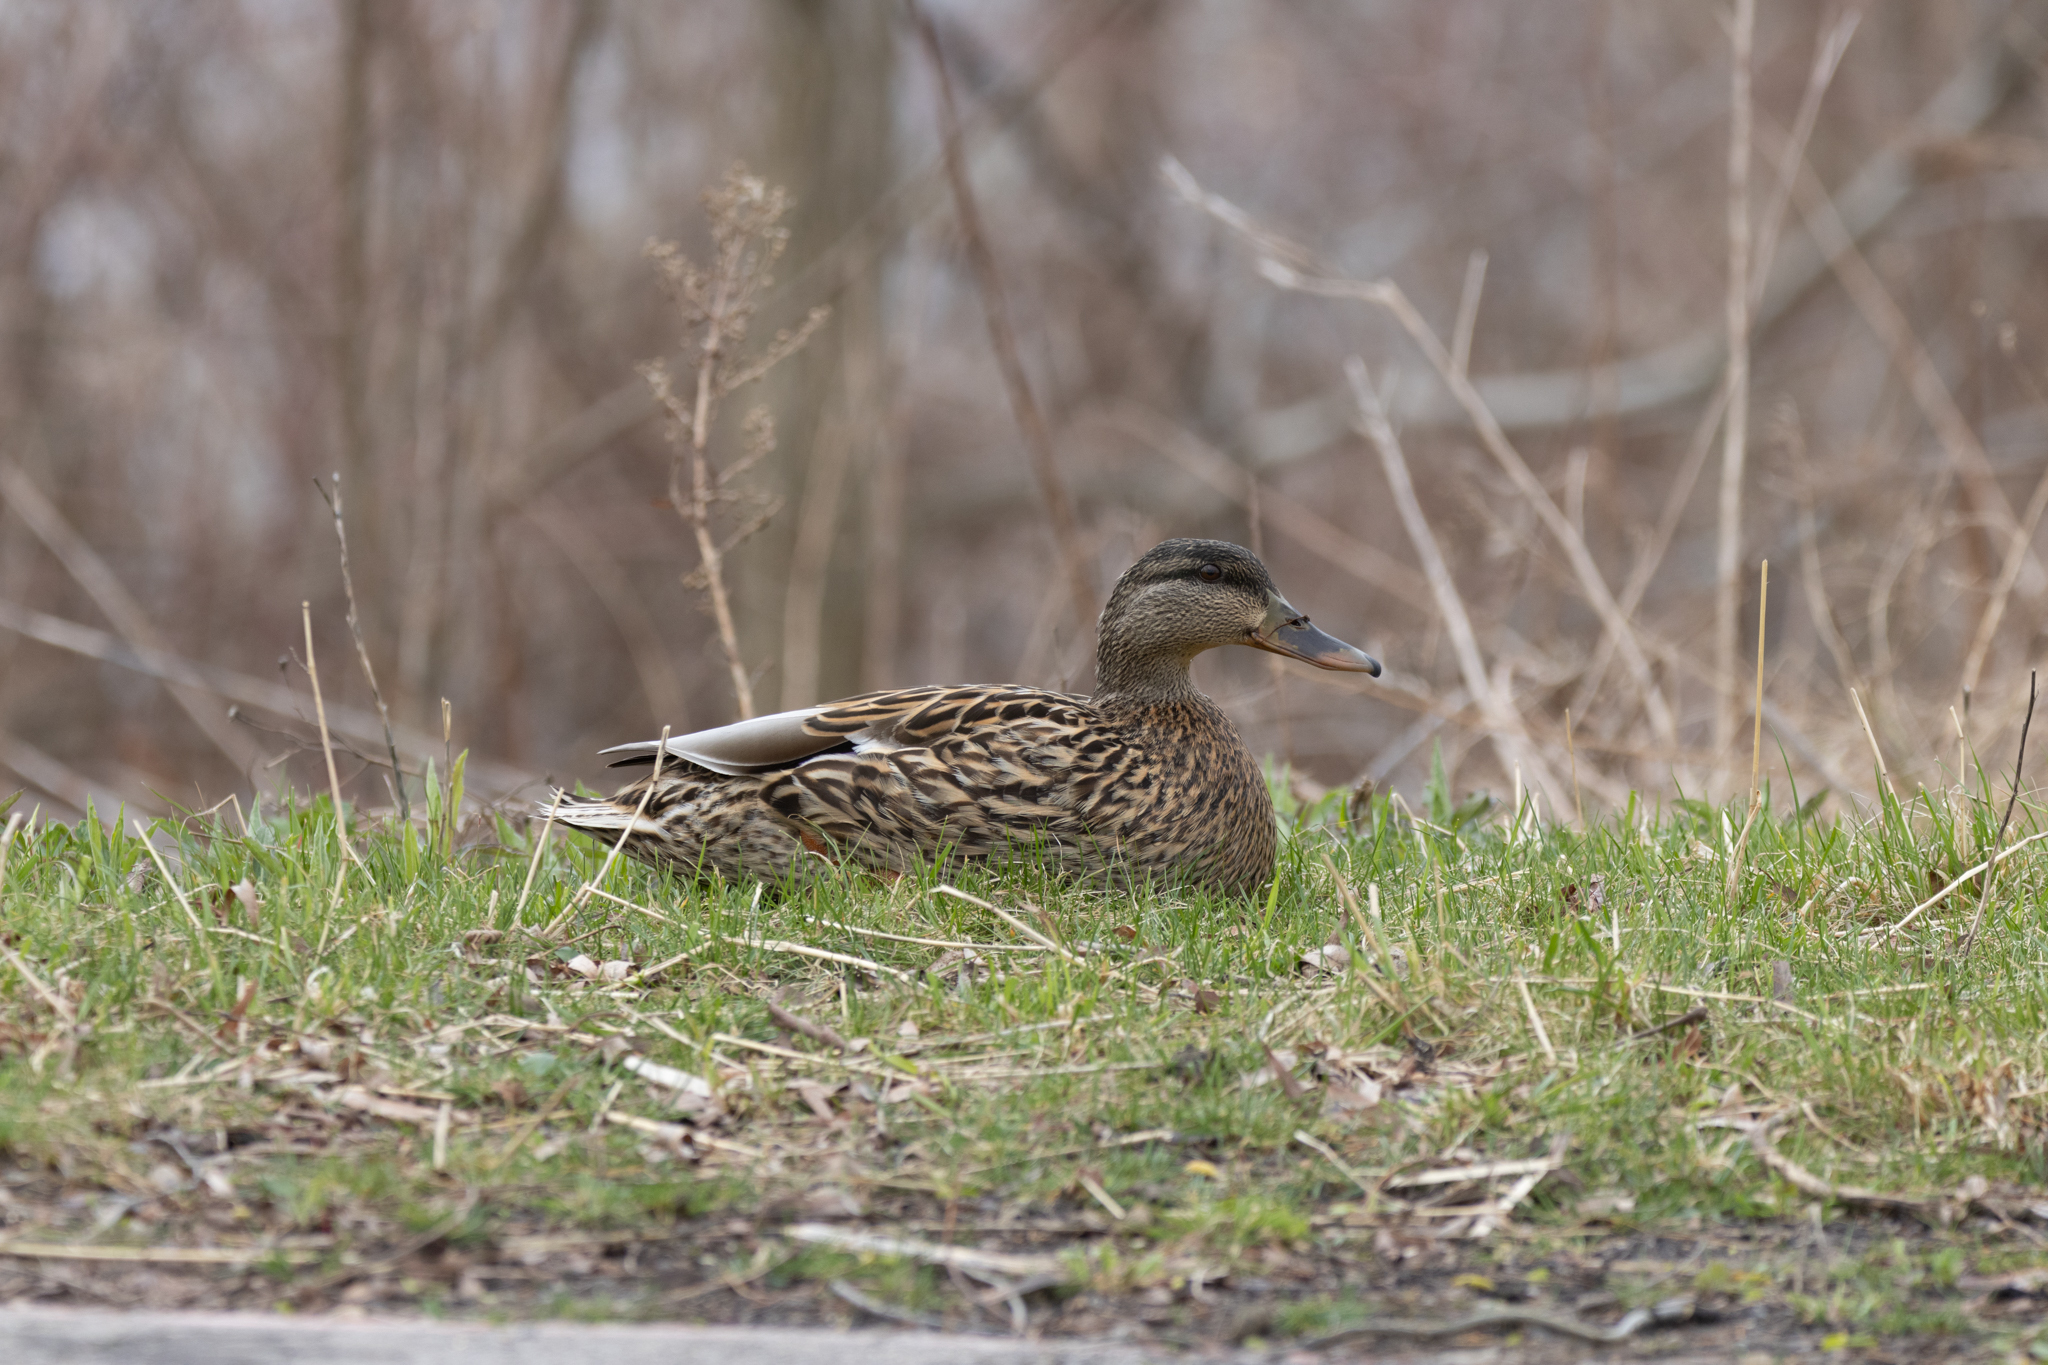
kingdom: Animalia
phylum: Chordata
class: Aves
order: Anseriformes
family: Anatidae
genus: Anas
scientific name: Anas platyrhynchos
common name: Mallard
